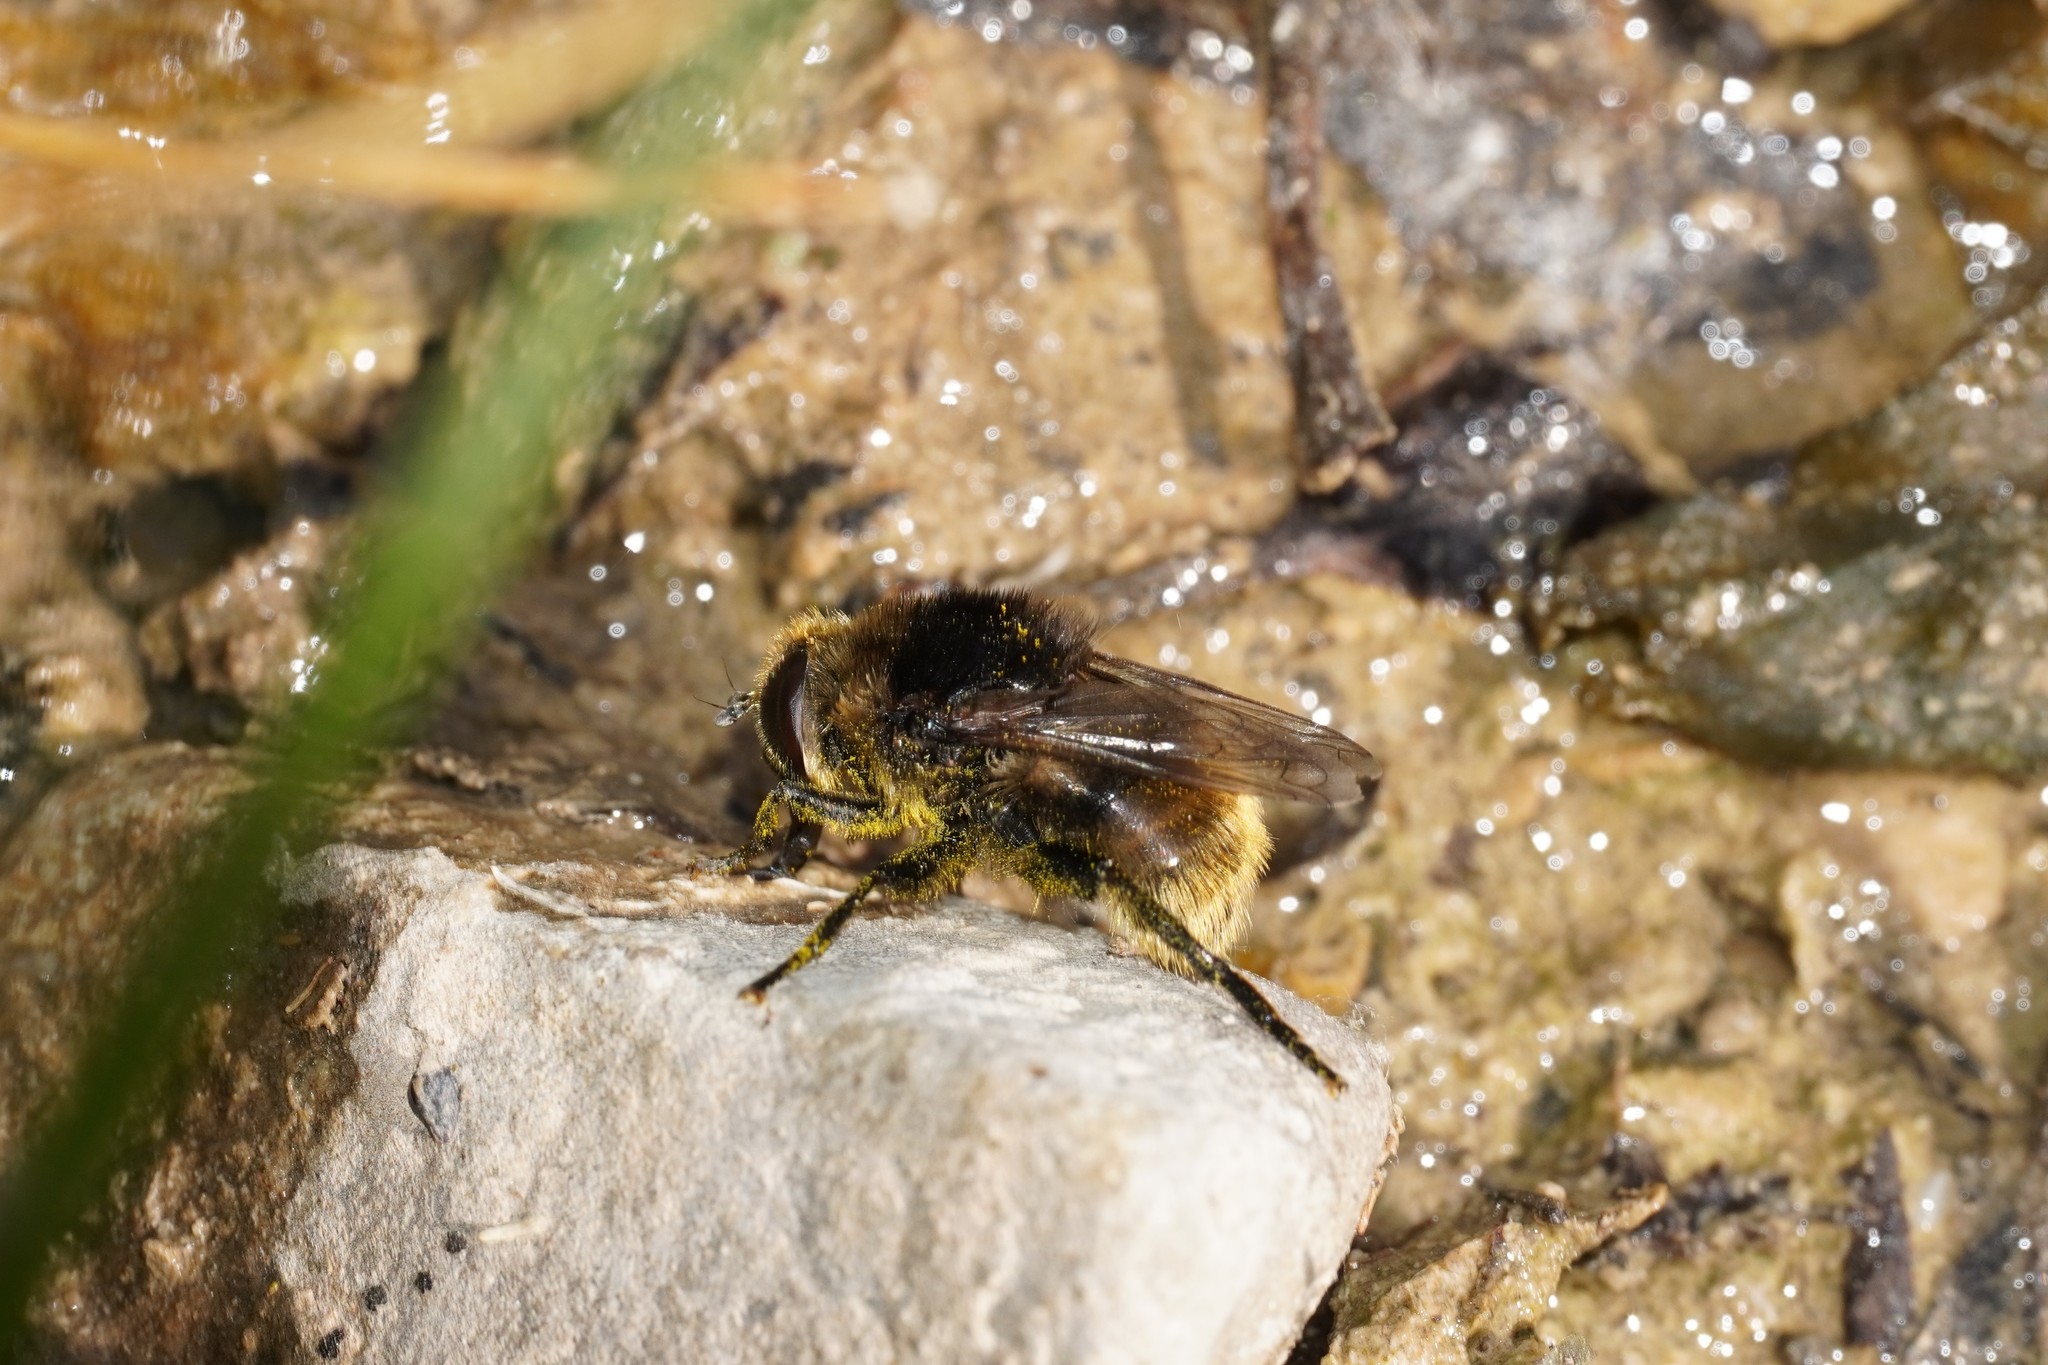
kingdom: Animalia
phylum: Arthropoda
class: Insecta
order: Diptera
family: Syrphidae
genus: Merodon
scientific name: Merodon equestris
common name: Greater bulb-fly
